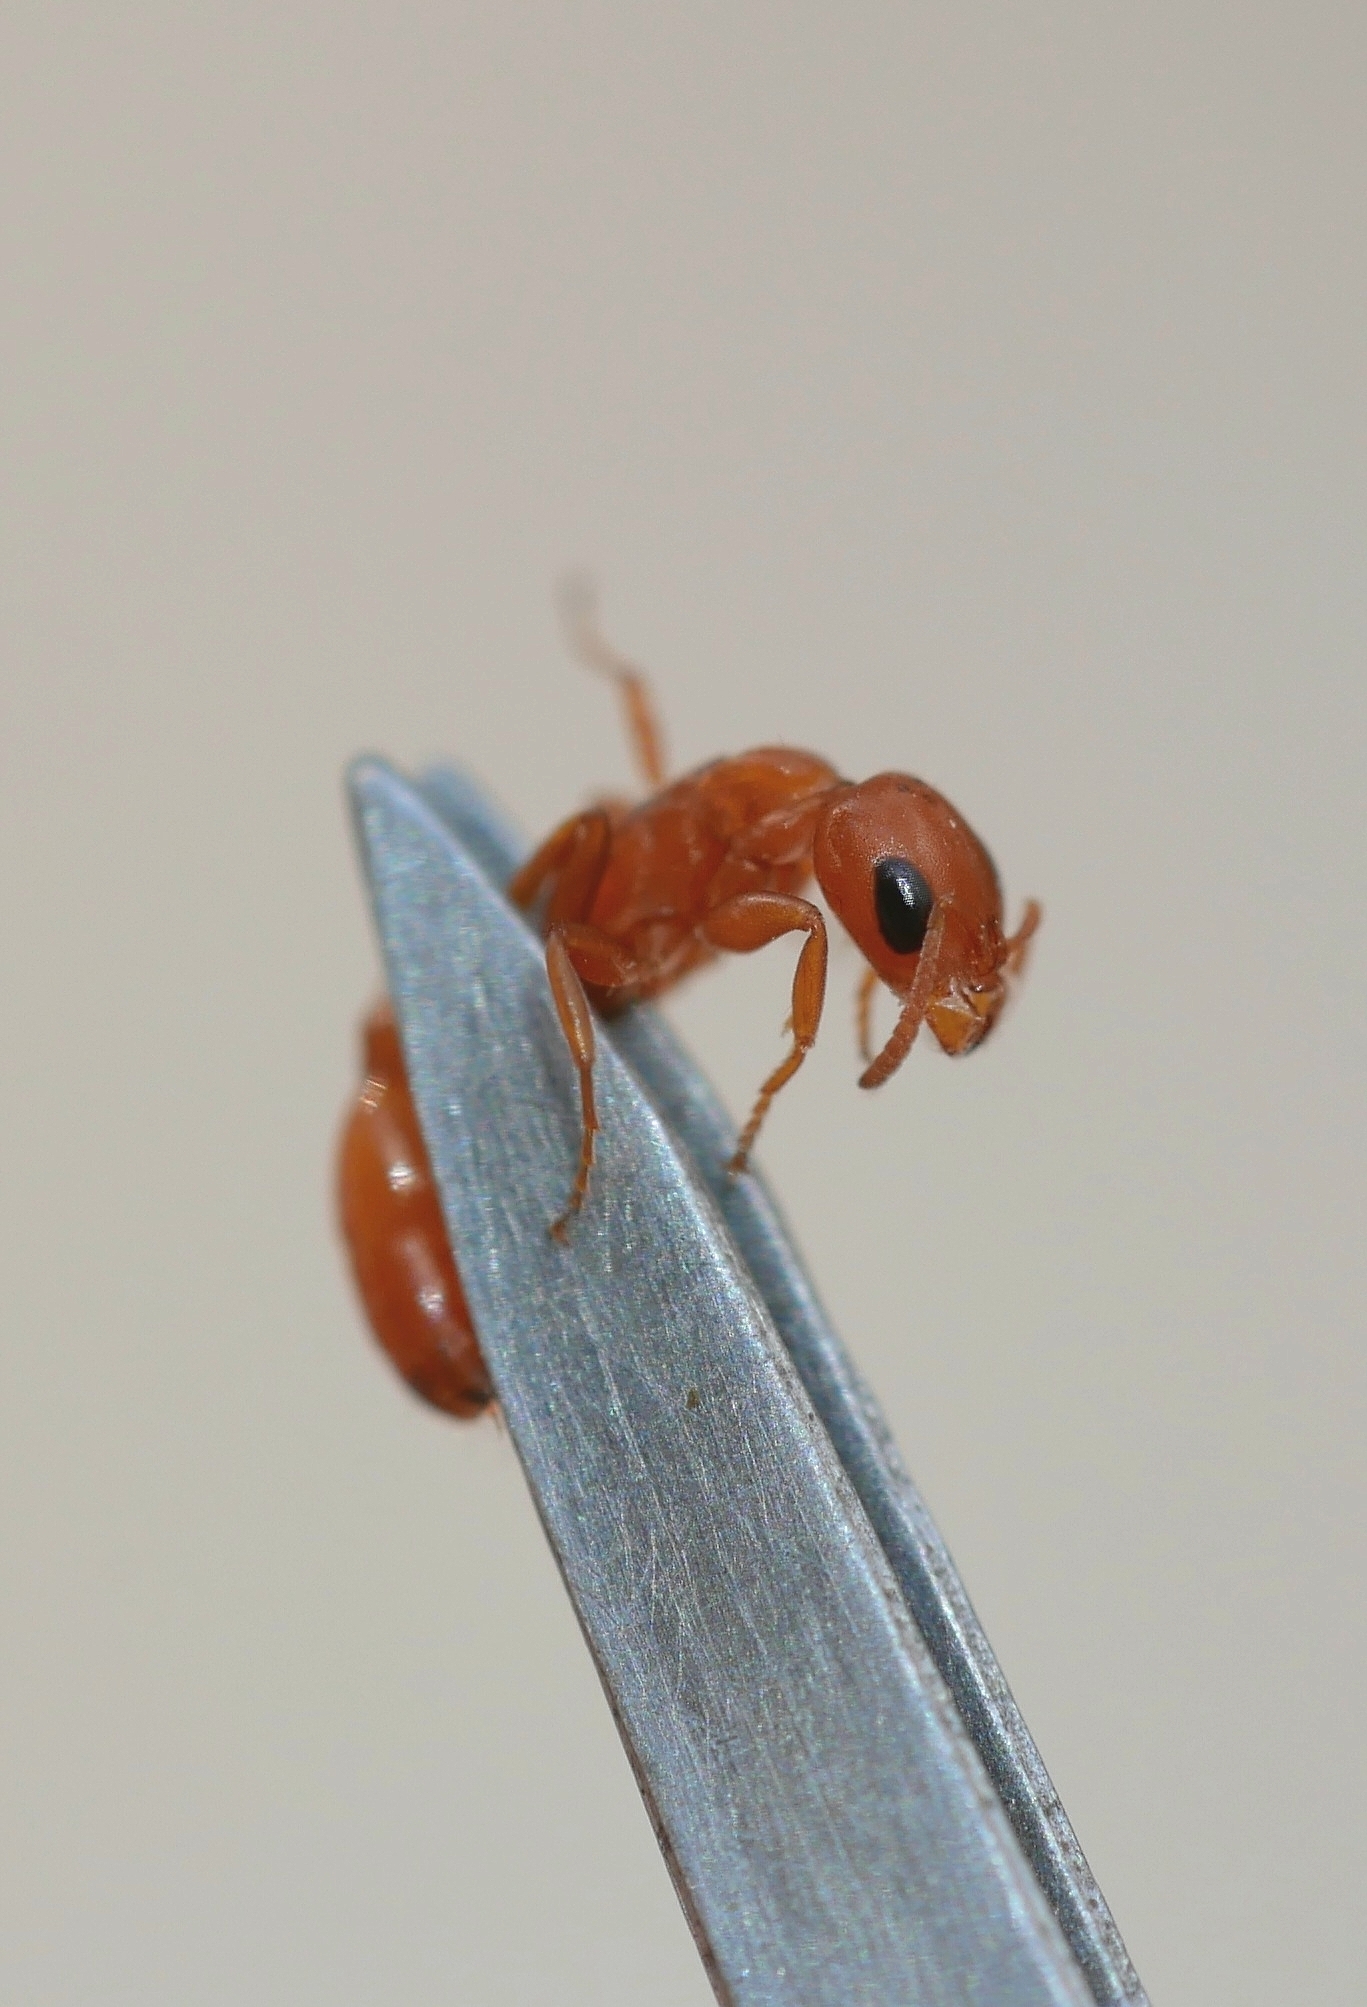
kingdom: Animalia
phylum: Arthropoda
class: Insecta
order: Hymenoptera
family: Formicidae
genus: Pseudomyrmex
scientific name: Pseudomyrmex apache
